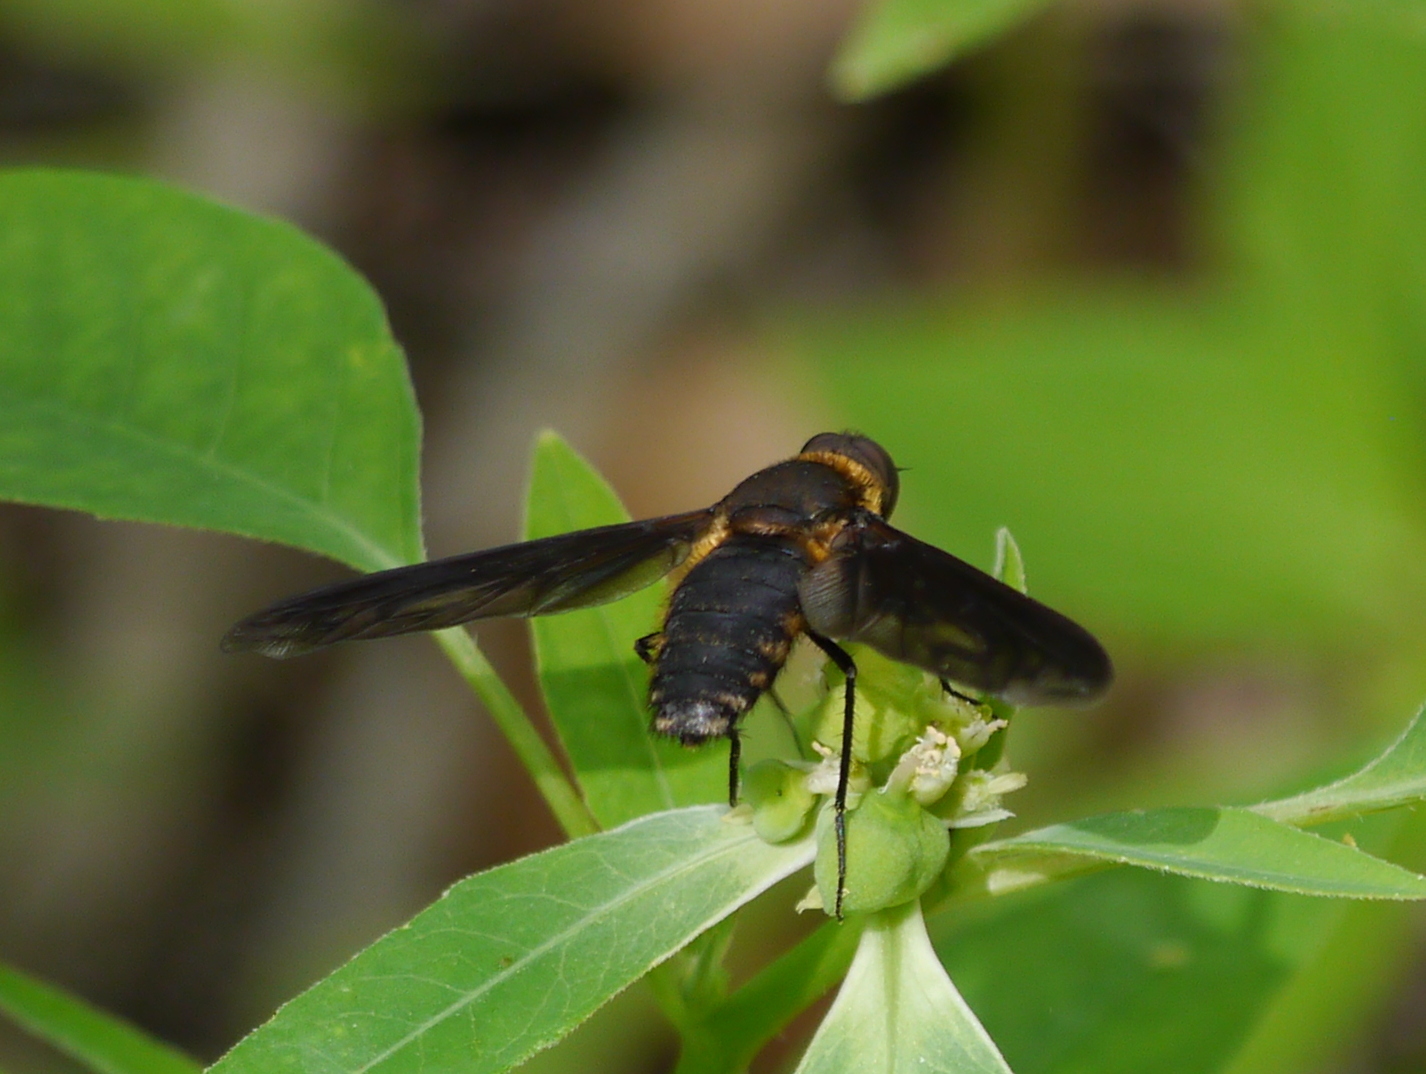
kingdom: Animalia
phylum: Arthropoda
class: Insecta
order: Diptera
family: Bombyliidae
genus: Exoprosopa
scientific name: Exoprosopa fumosa
